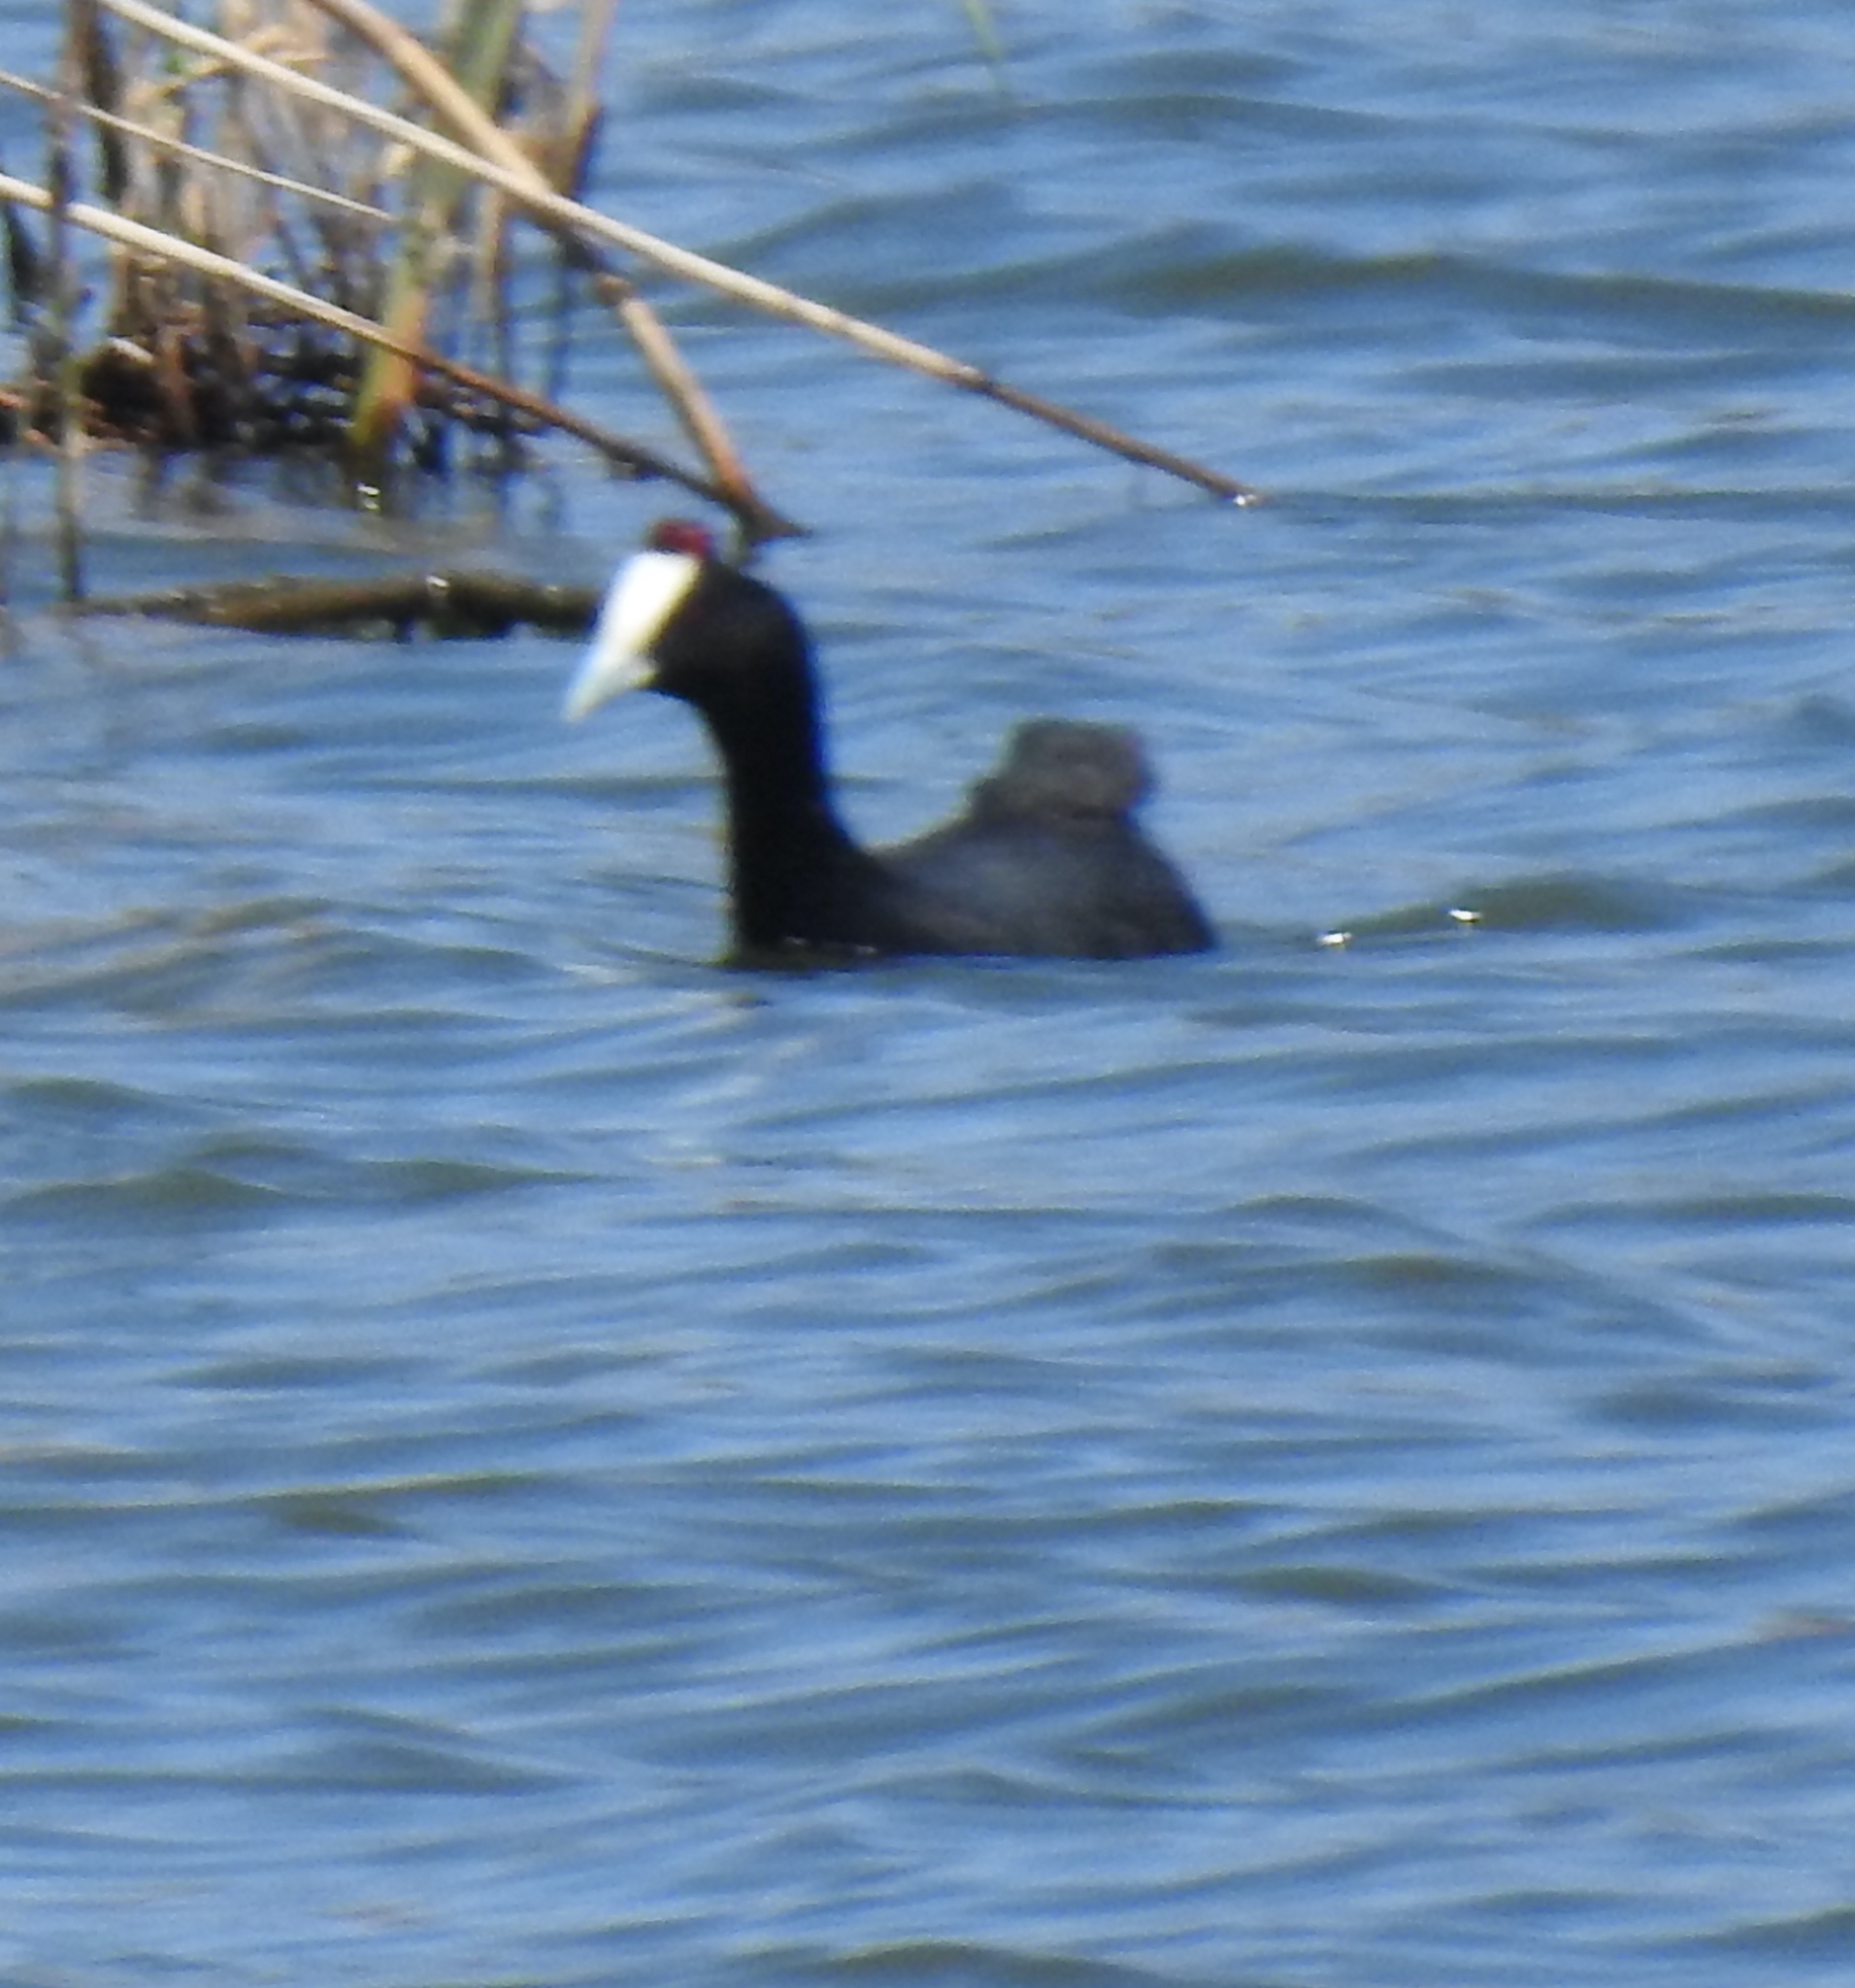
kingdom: Animalia
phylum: Chordata
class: Aves
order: Gruiformes
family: Rallidae
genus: Fulica
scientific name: Fulica cristata
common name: Red-knobbed coot
